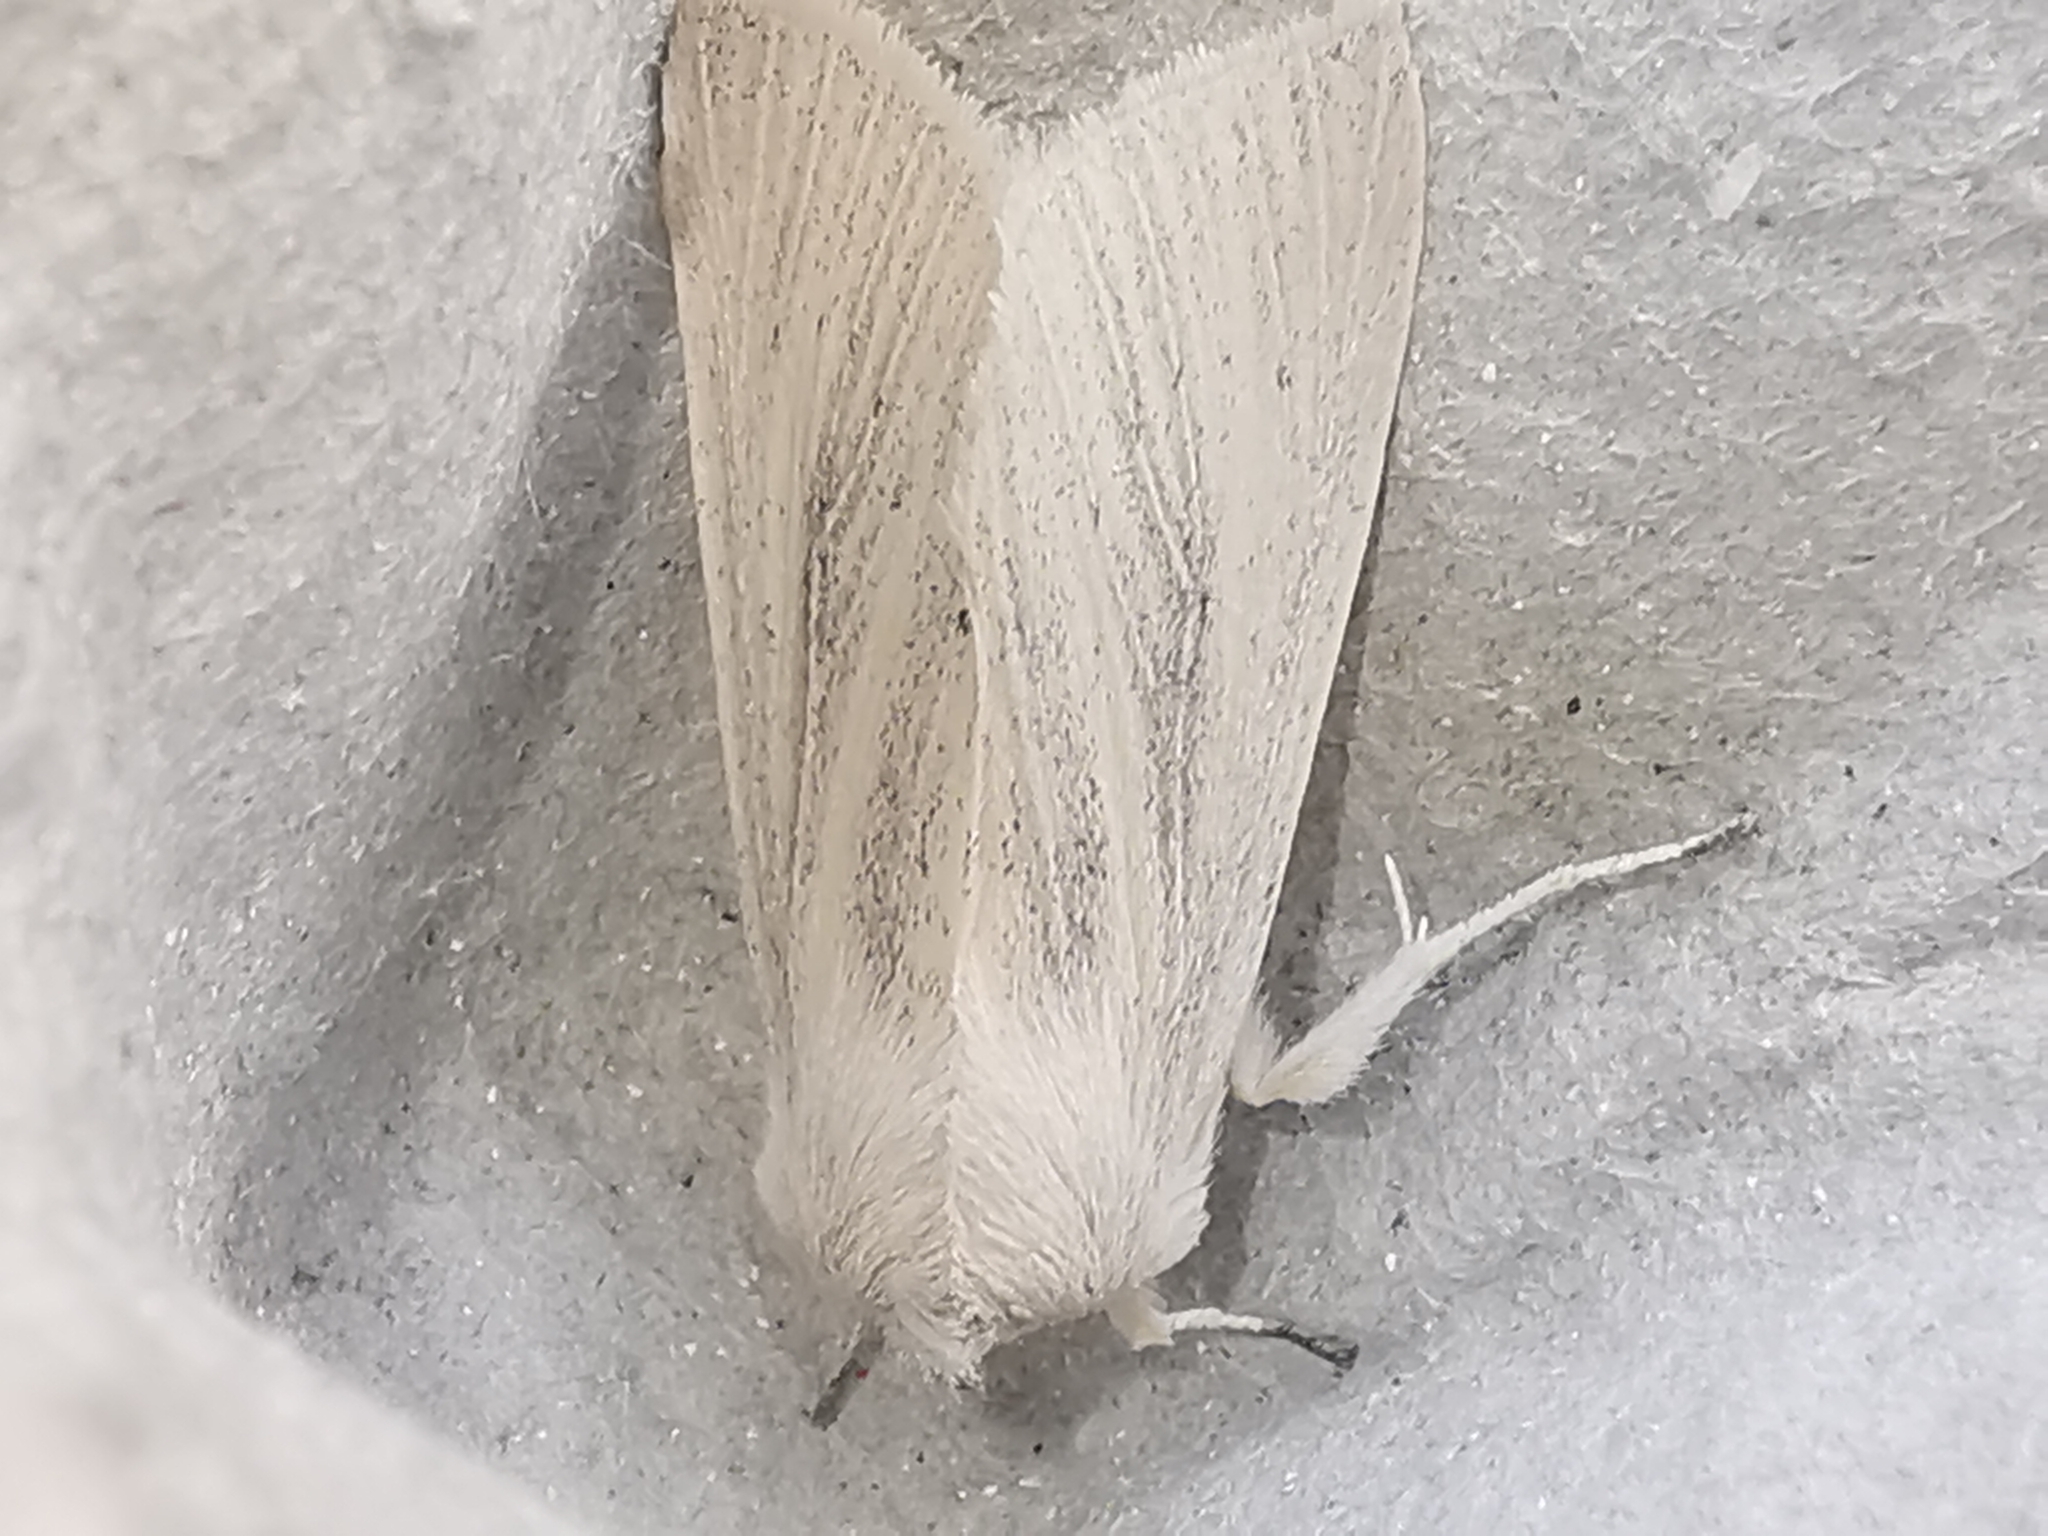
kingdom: Animalia
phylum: Arthropoda
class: Insecta
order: Lepidoptera
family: Noctuidae
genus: Rhizedra
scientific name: Rhizedra lutosa
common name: Large wainscot
